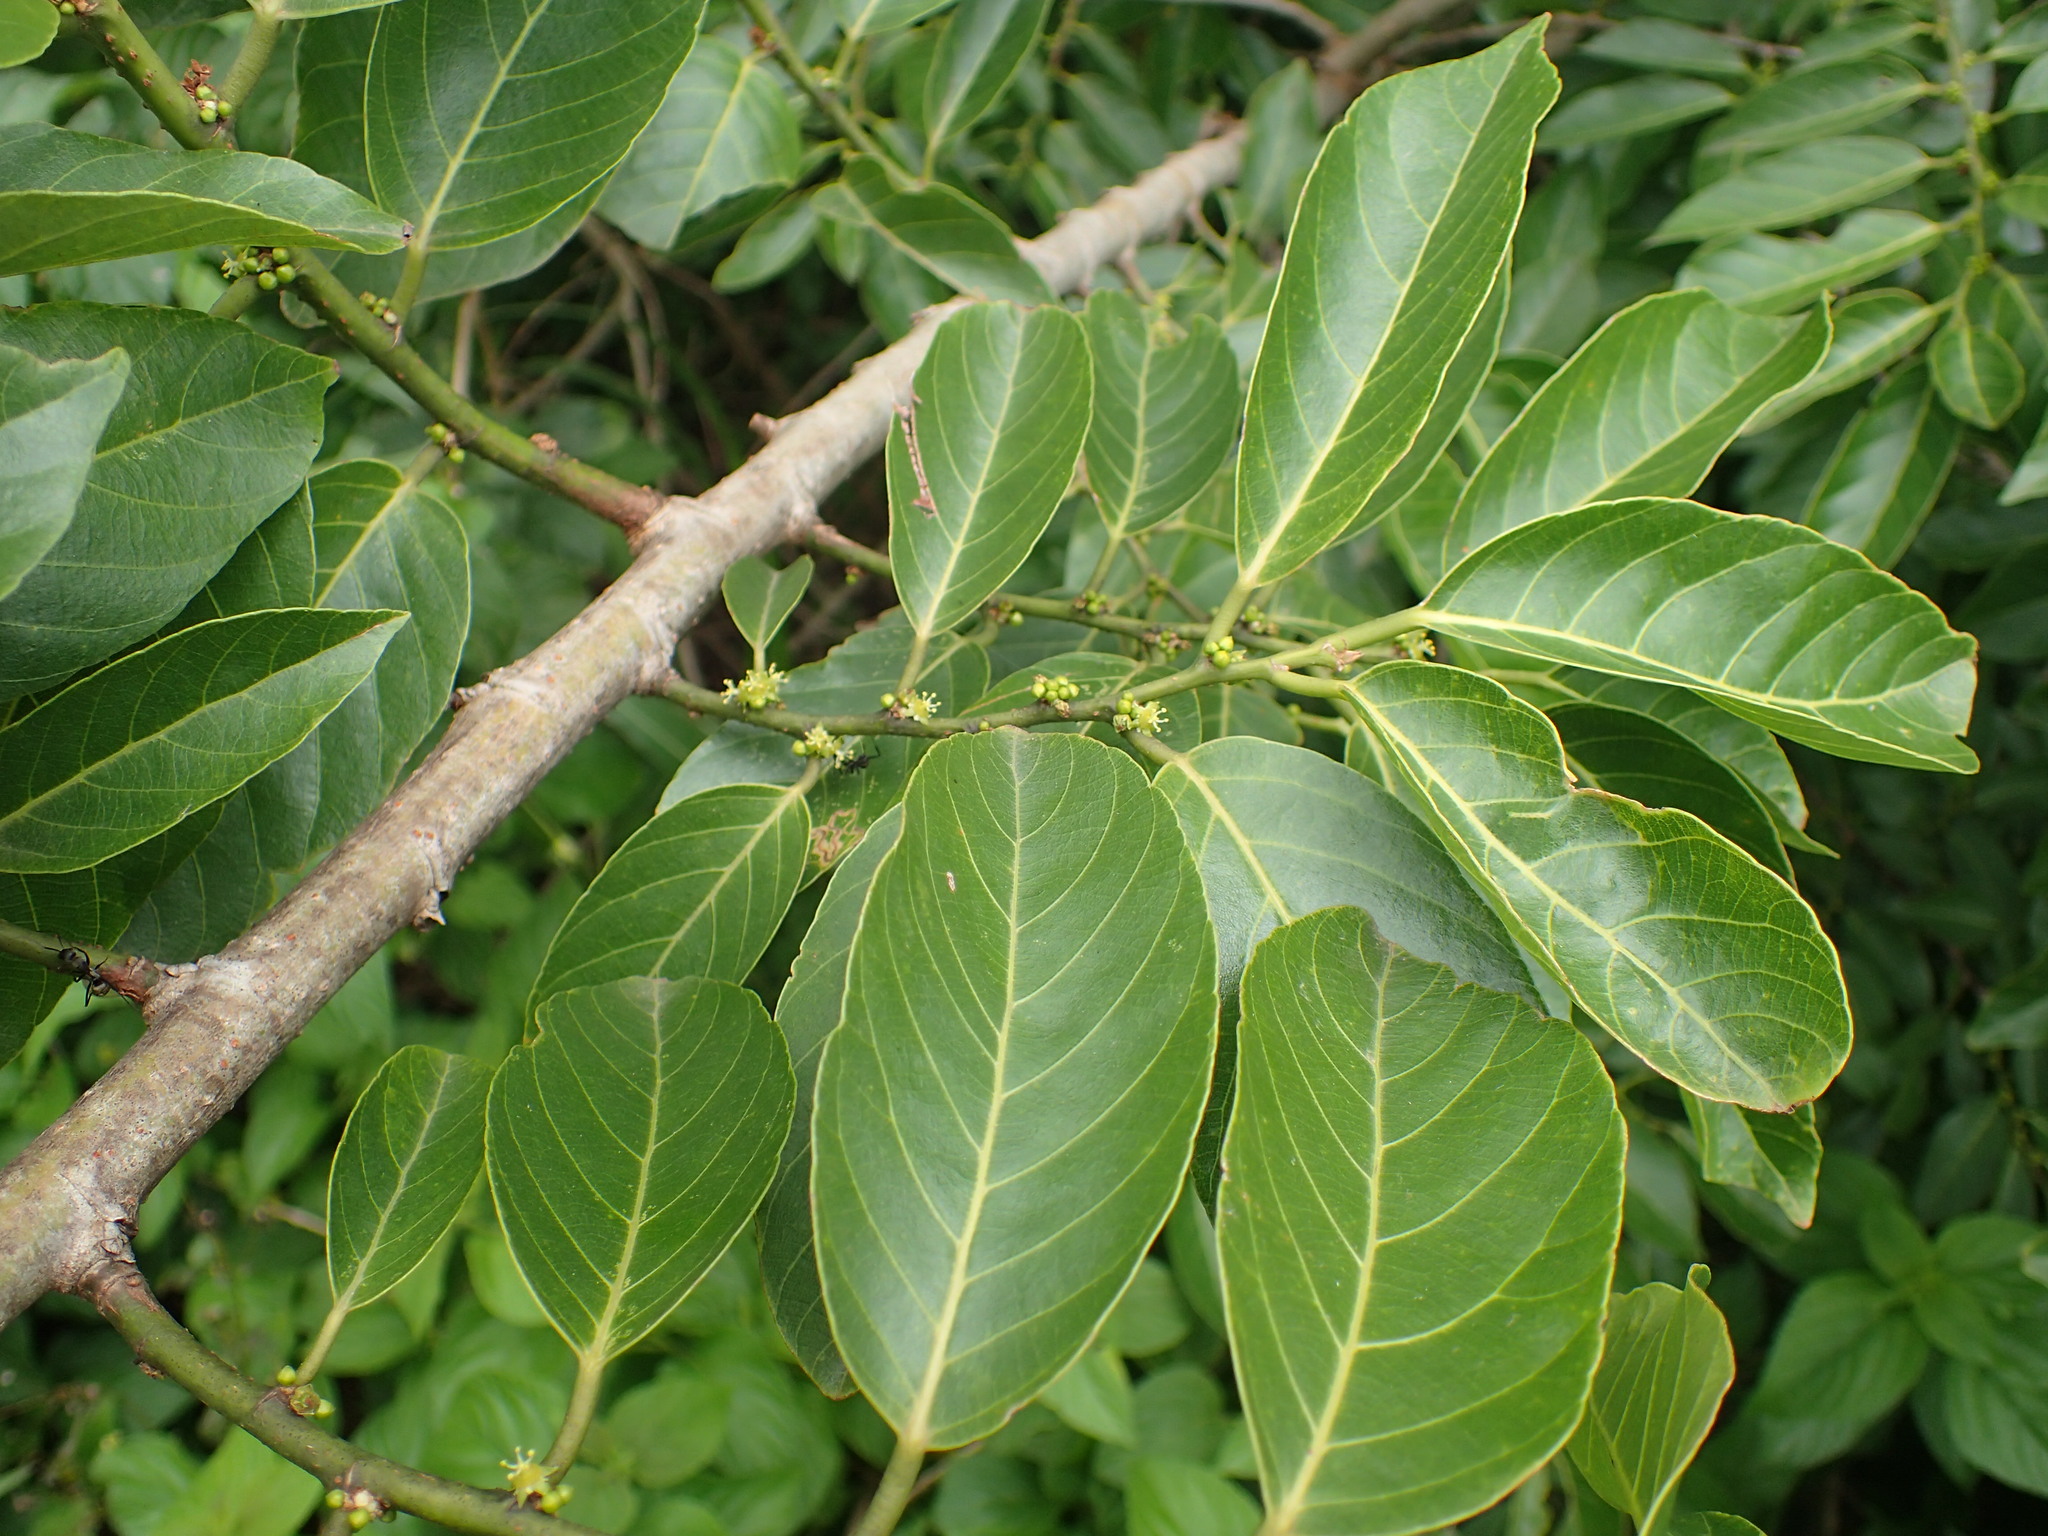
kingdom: Plantae
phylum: Tracheophyta
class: Magnoliopsida
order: Malpighiales
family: Phyllanthaceae
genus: Bridelia
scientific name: Bridelia micrantha
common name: Bridelia
